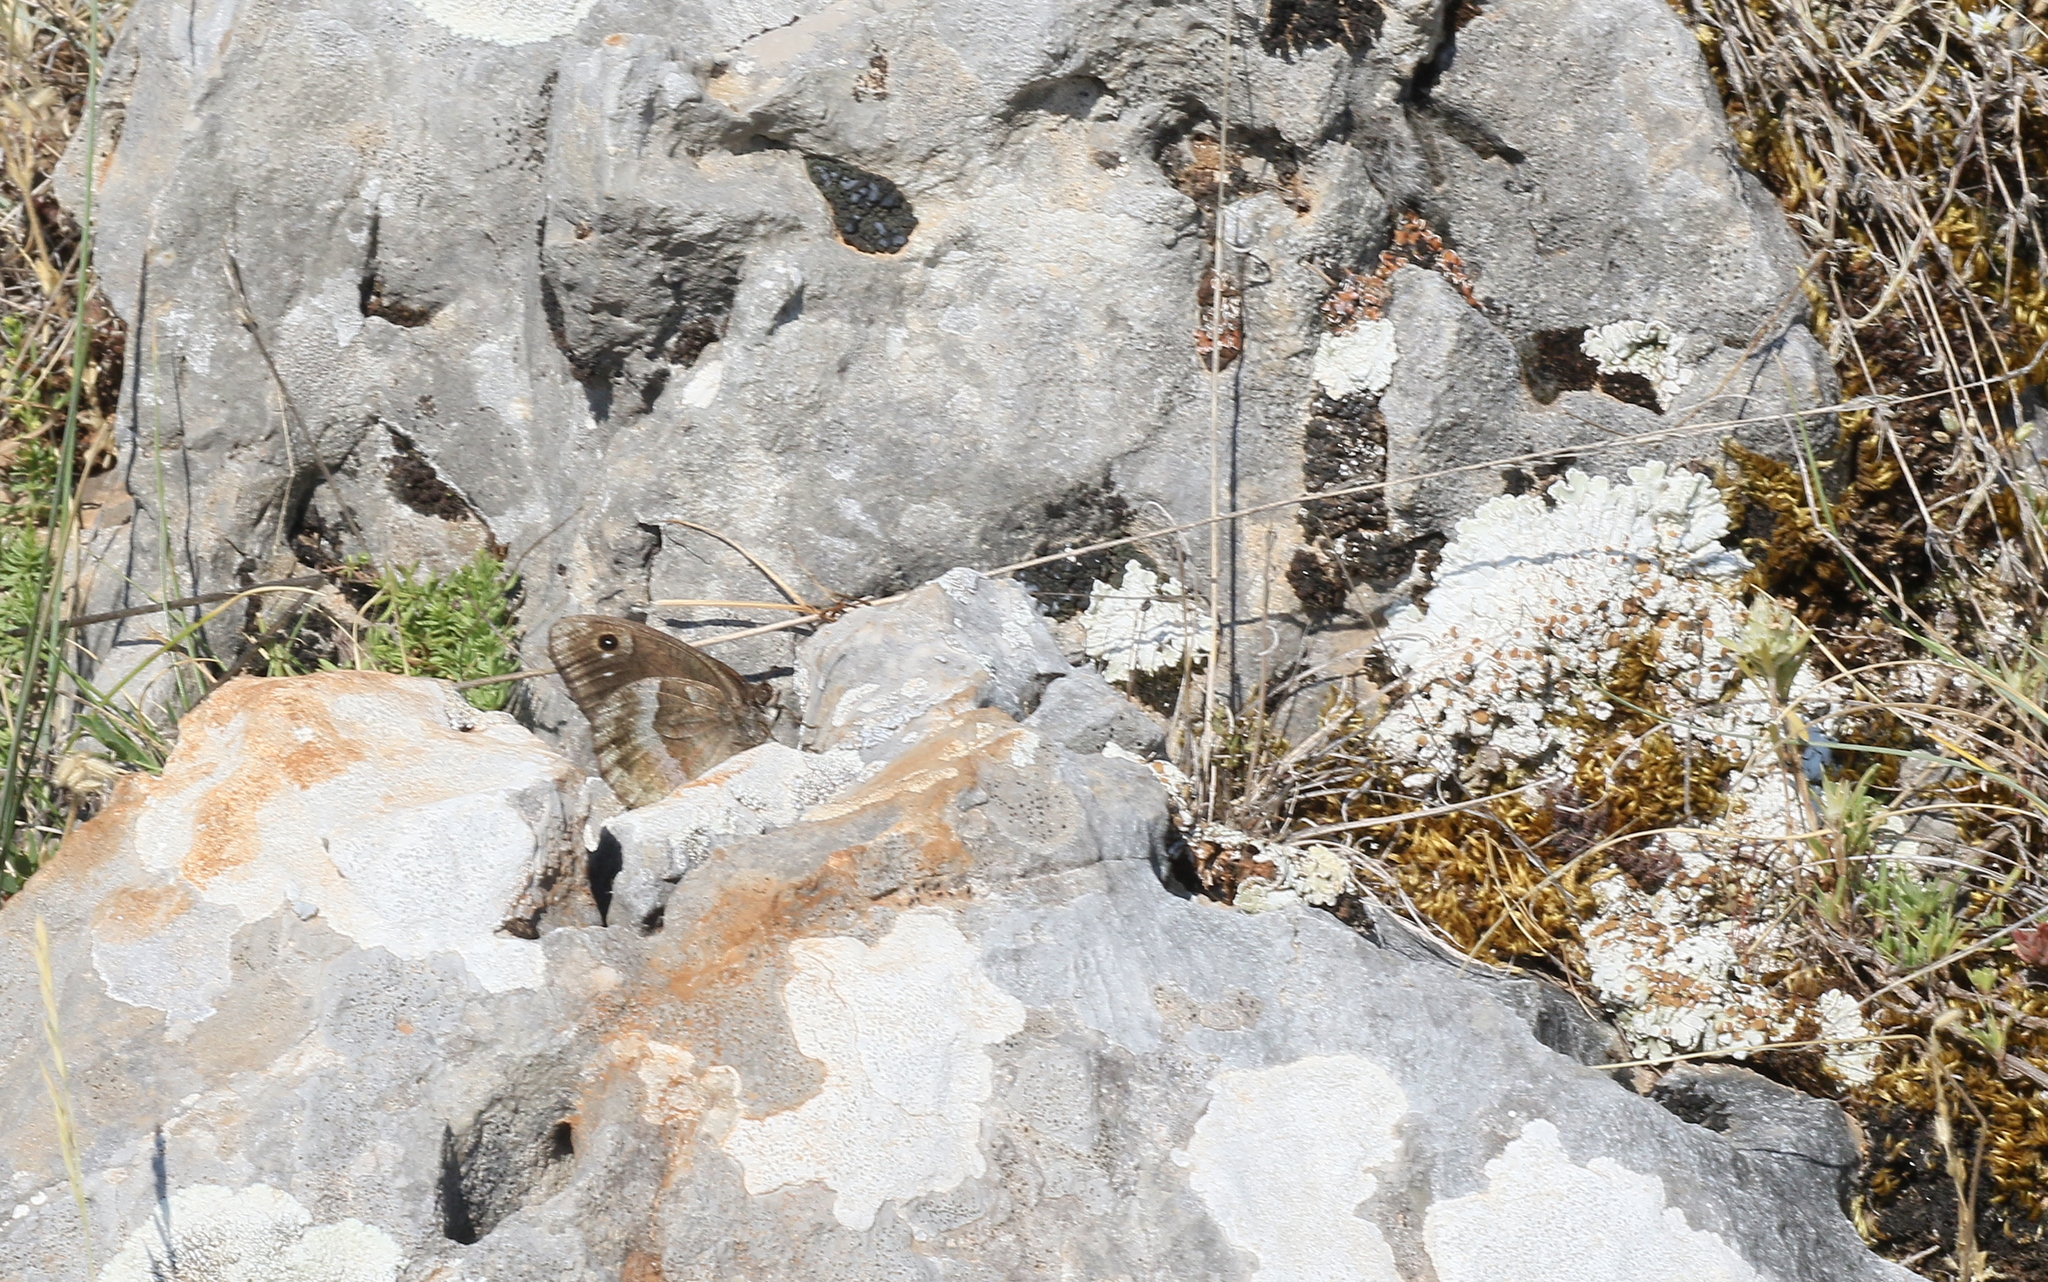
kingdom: Animalia
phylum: Arthropoda
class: Insecta
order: Lepidoptera
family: Nymphalidae
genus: Satyrus
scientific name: Satyrus ferula
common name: Great sooty satyr
